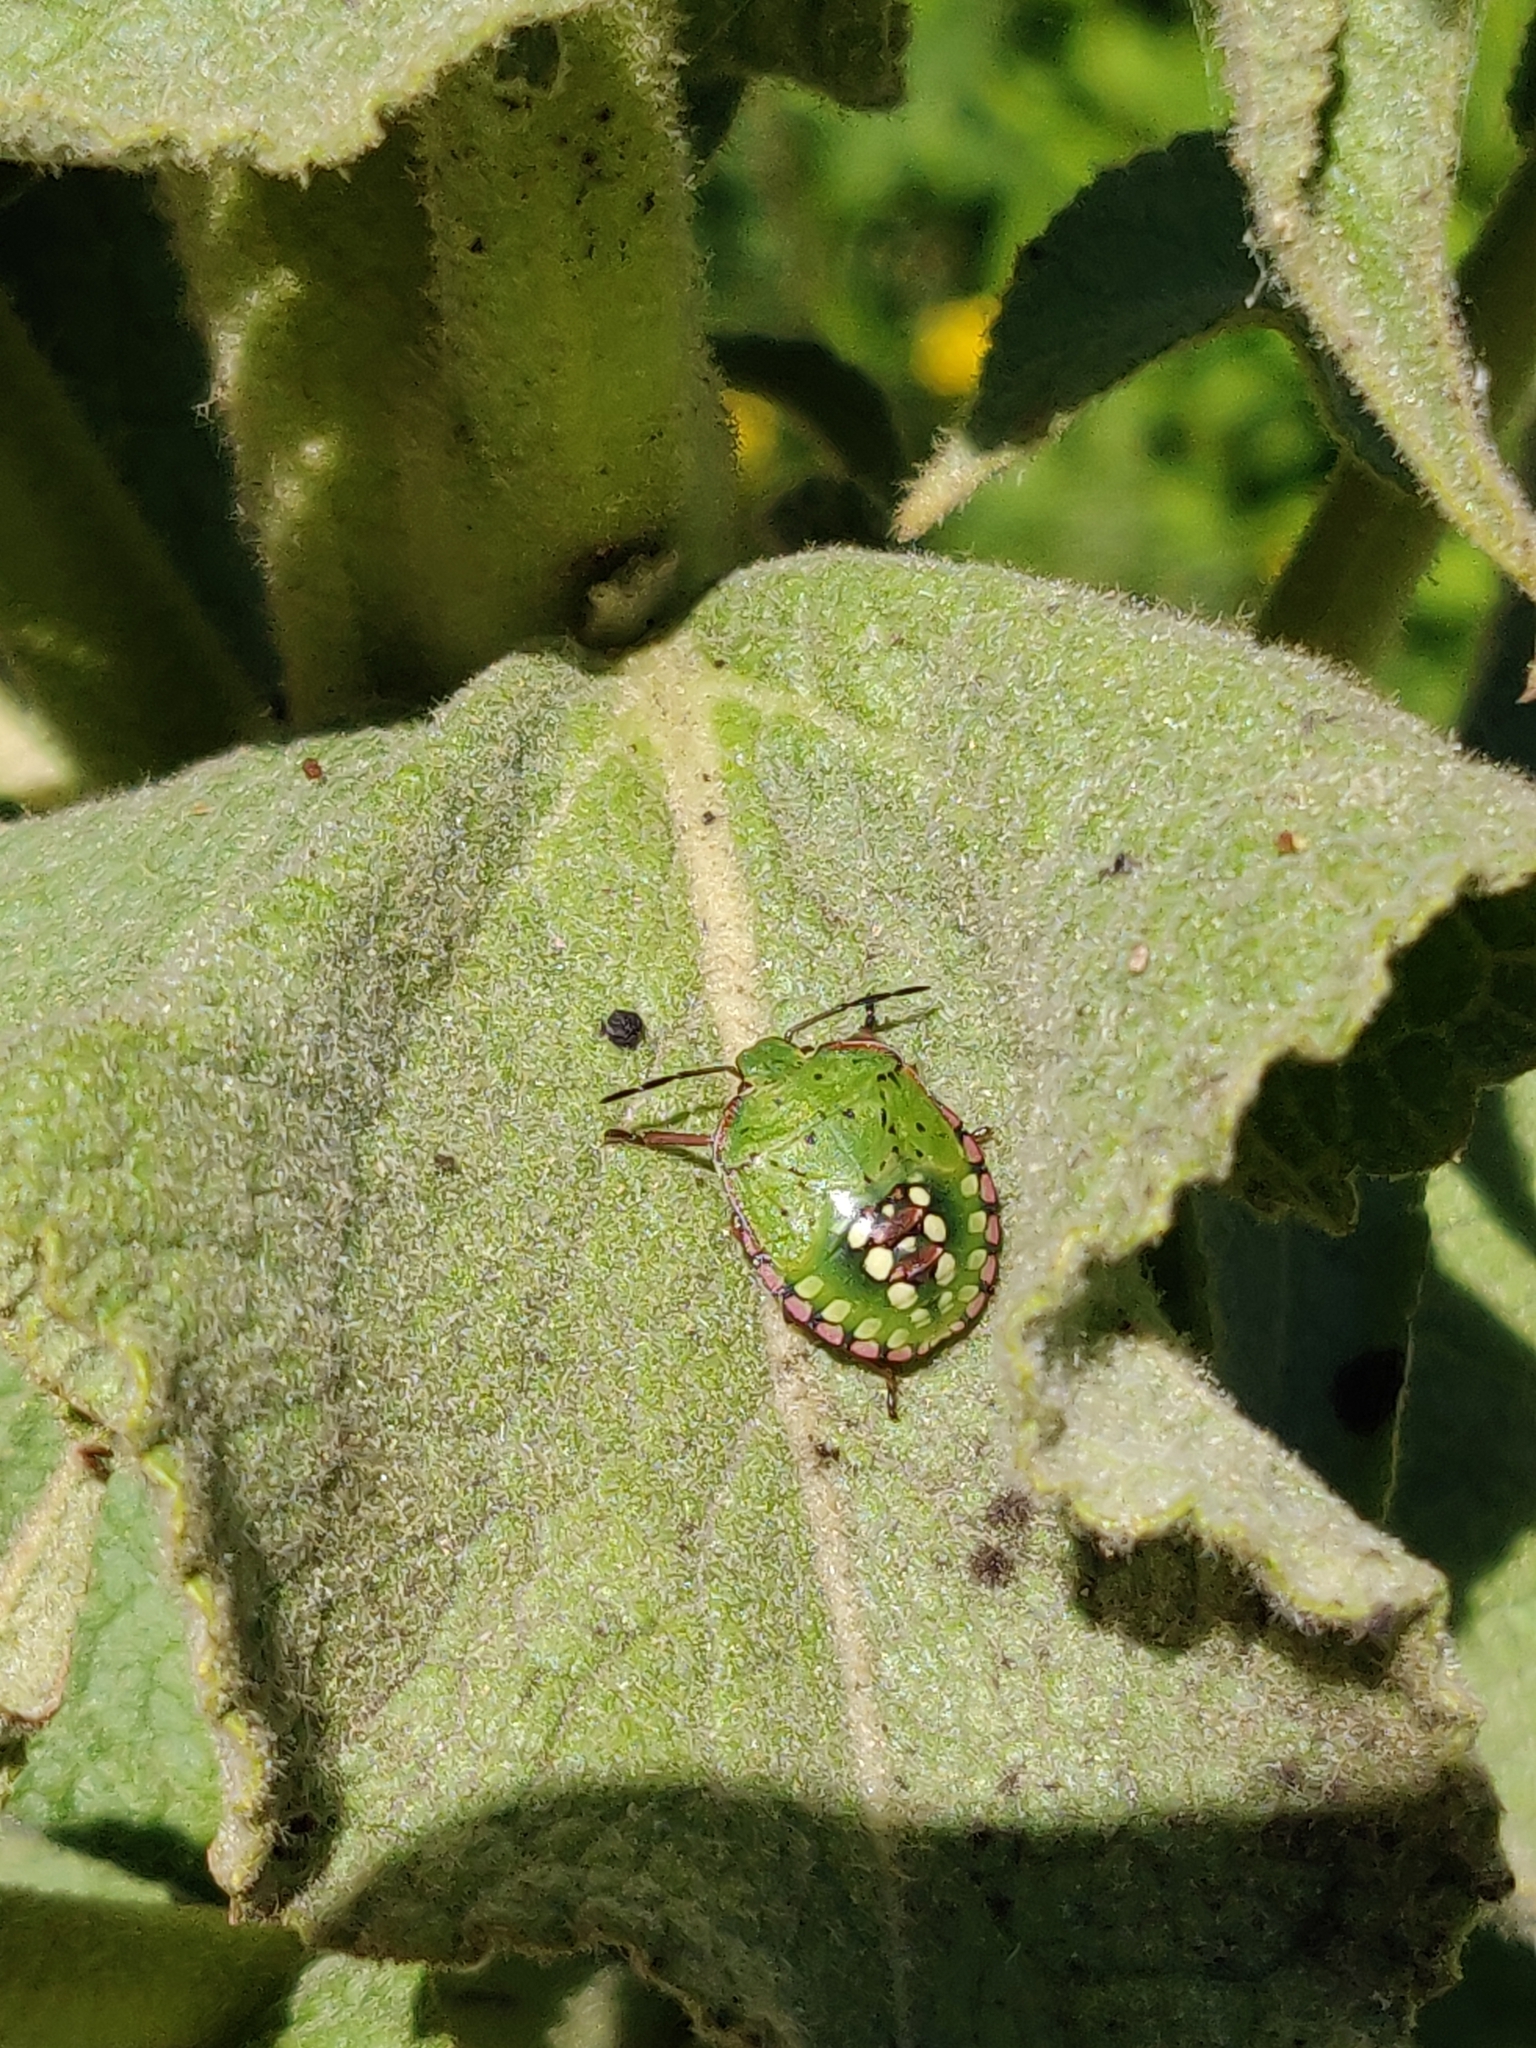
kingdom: Animalia
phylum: Arthropoda
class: Insecta
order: Hemiptera
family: Pentatomidae
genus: Nezara
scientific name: Nezara viridula
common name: Southern green stink bug
